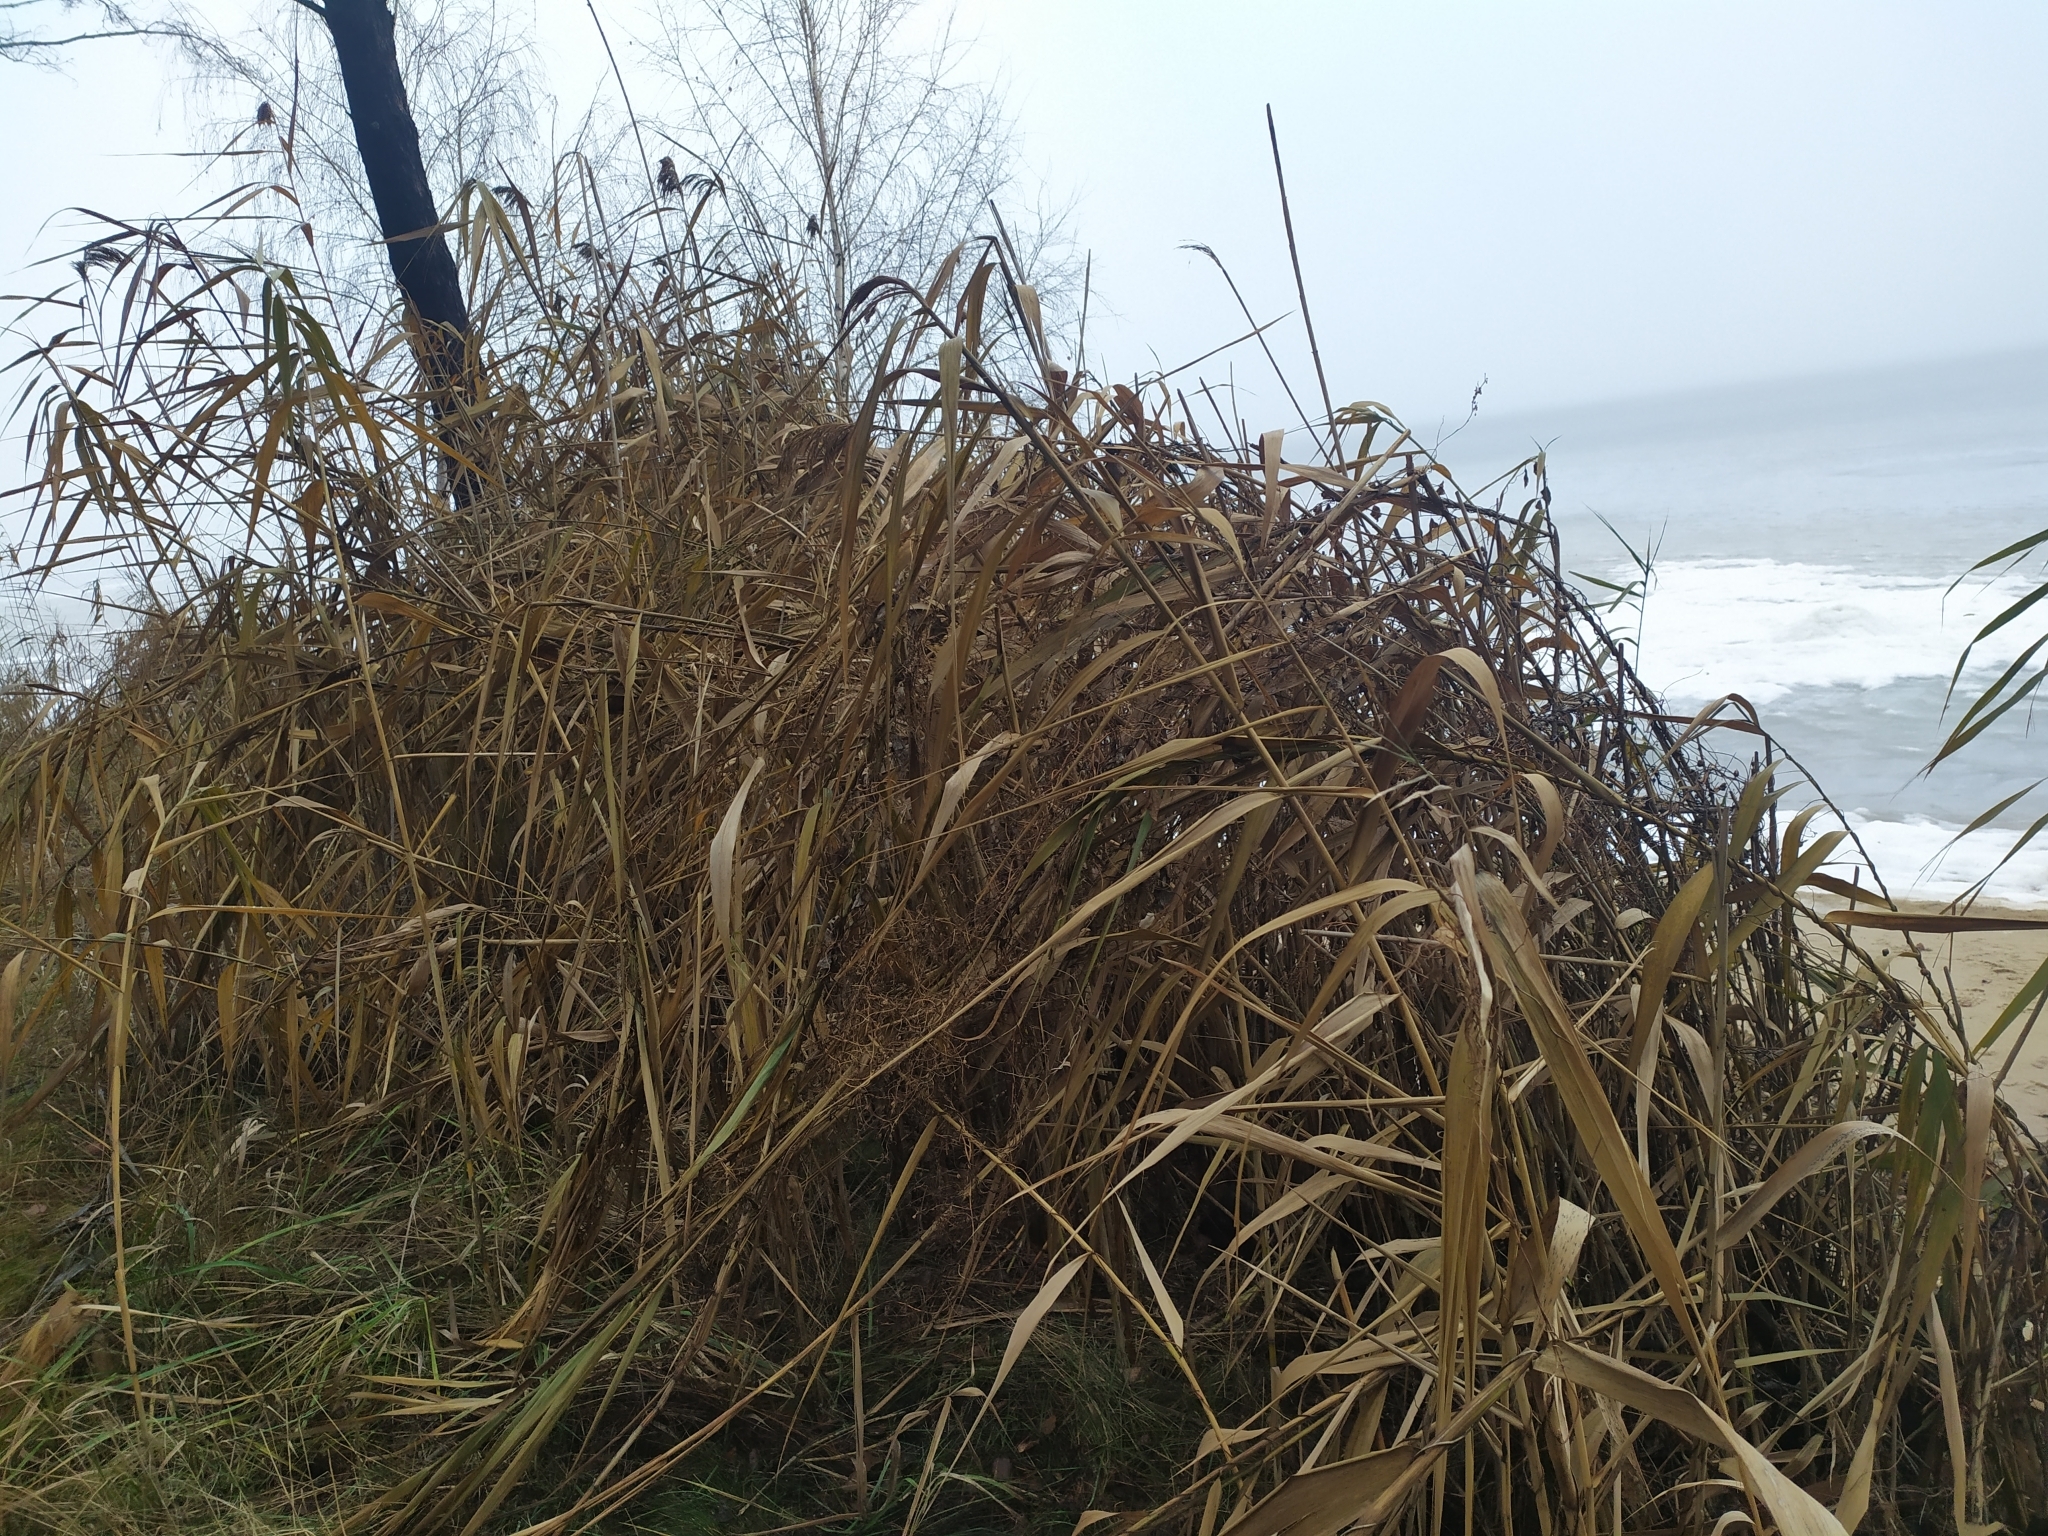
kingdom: Plantae
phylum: Tracheophyta
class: Liliopsida
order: Poales
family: Poaceae
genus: Phragmites
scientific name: Phragmites australis
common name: Common reed
